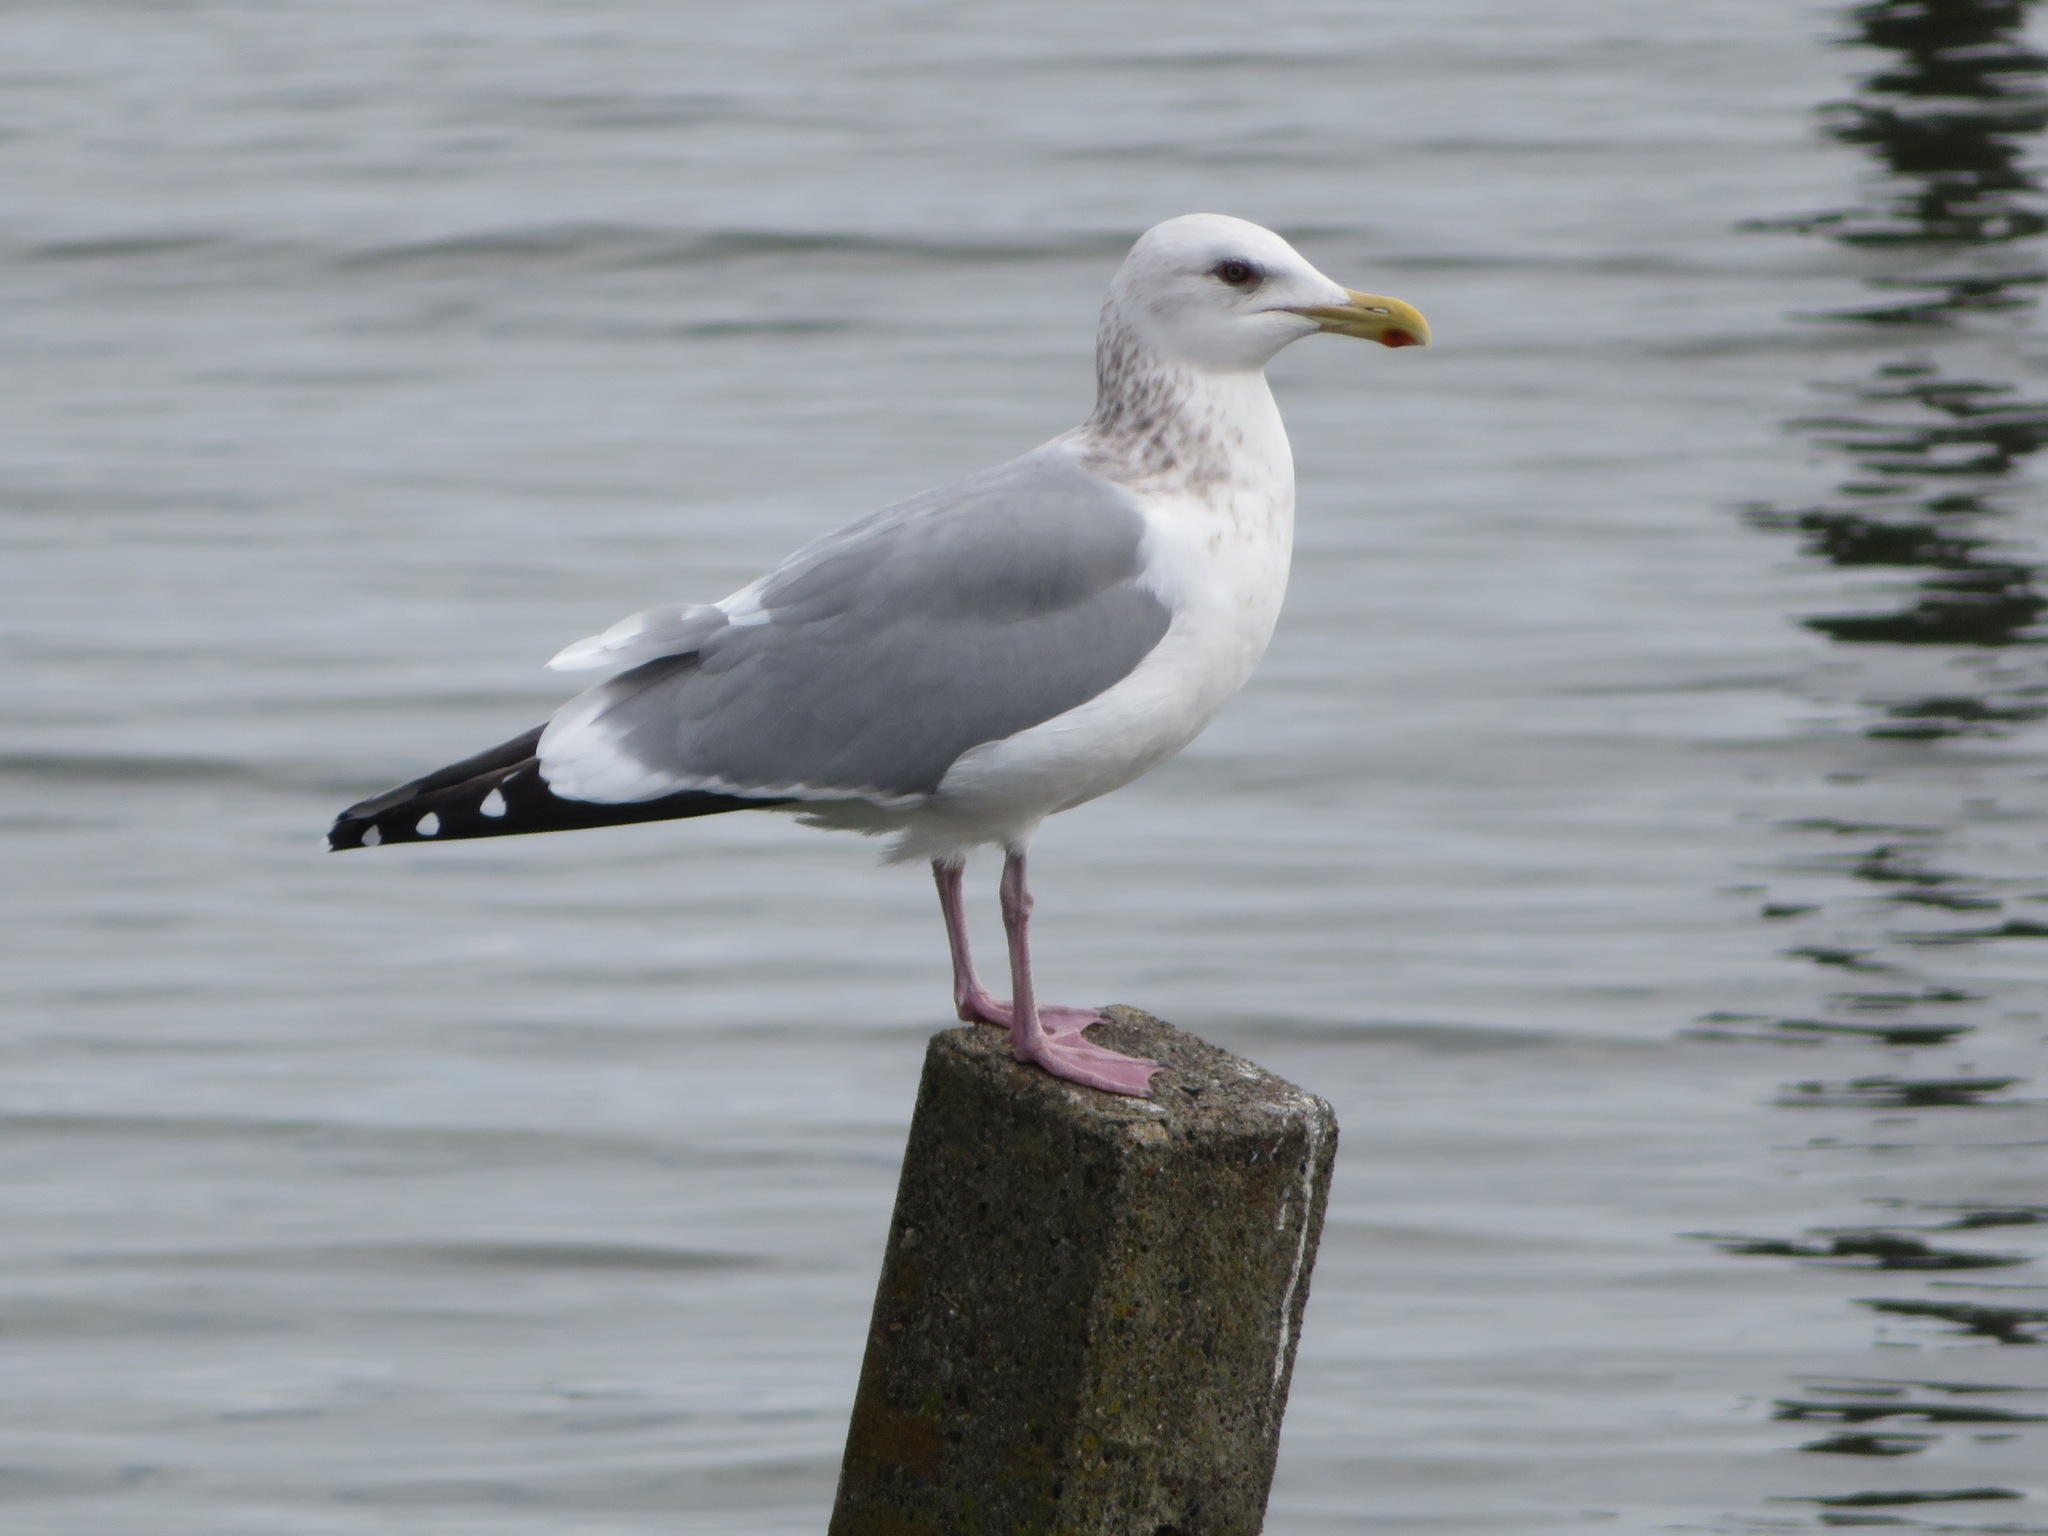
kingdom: Animalia
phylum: Chordata
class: Aves
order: Charadriiformes
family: Laridae
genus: Larus
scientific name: Larus vegae
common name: Vega gull
